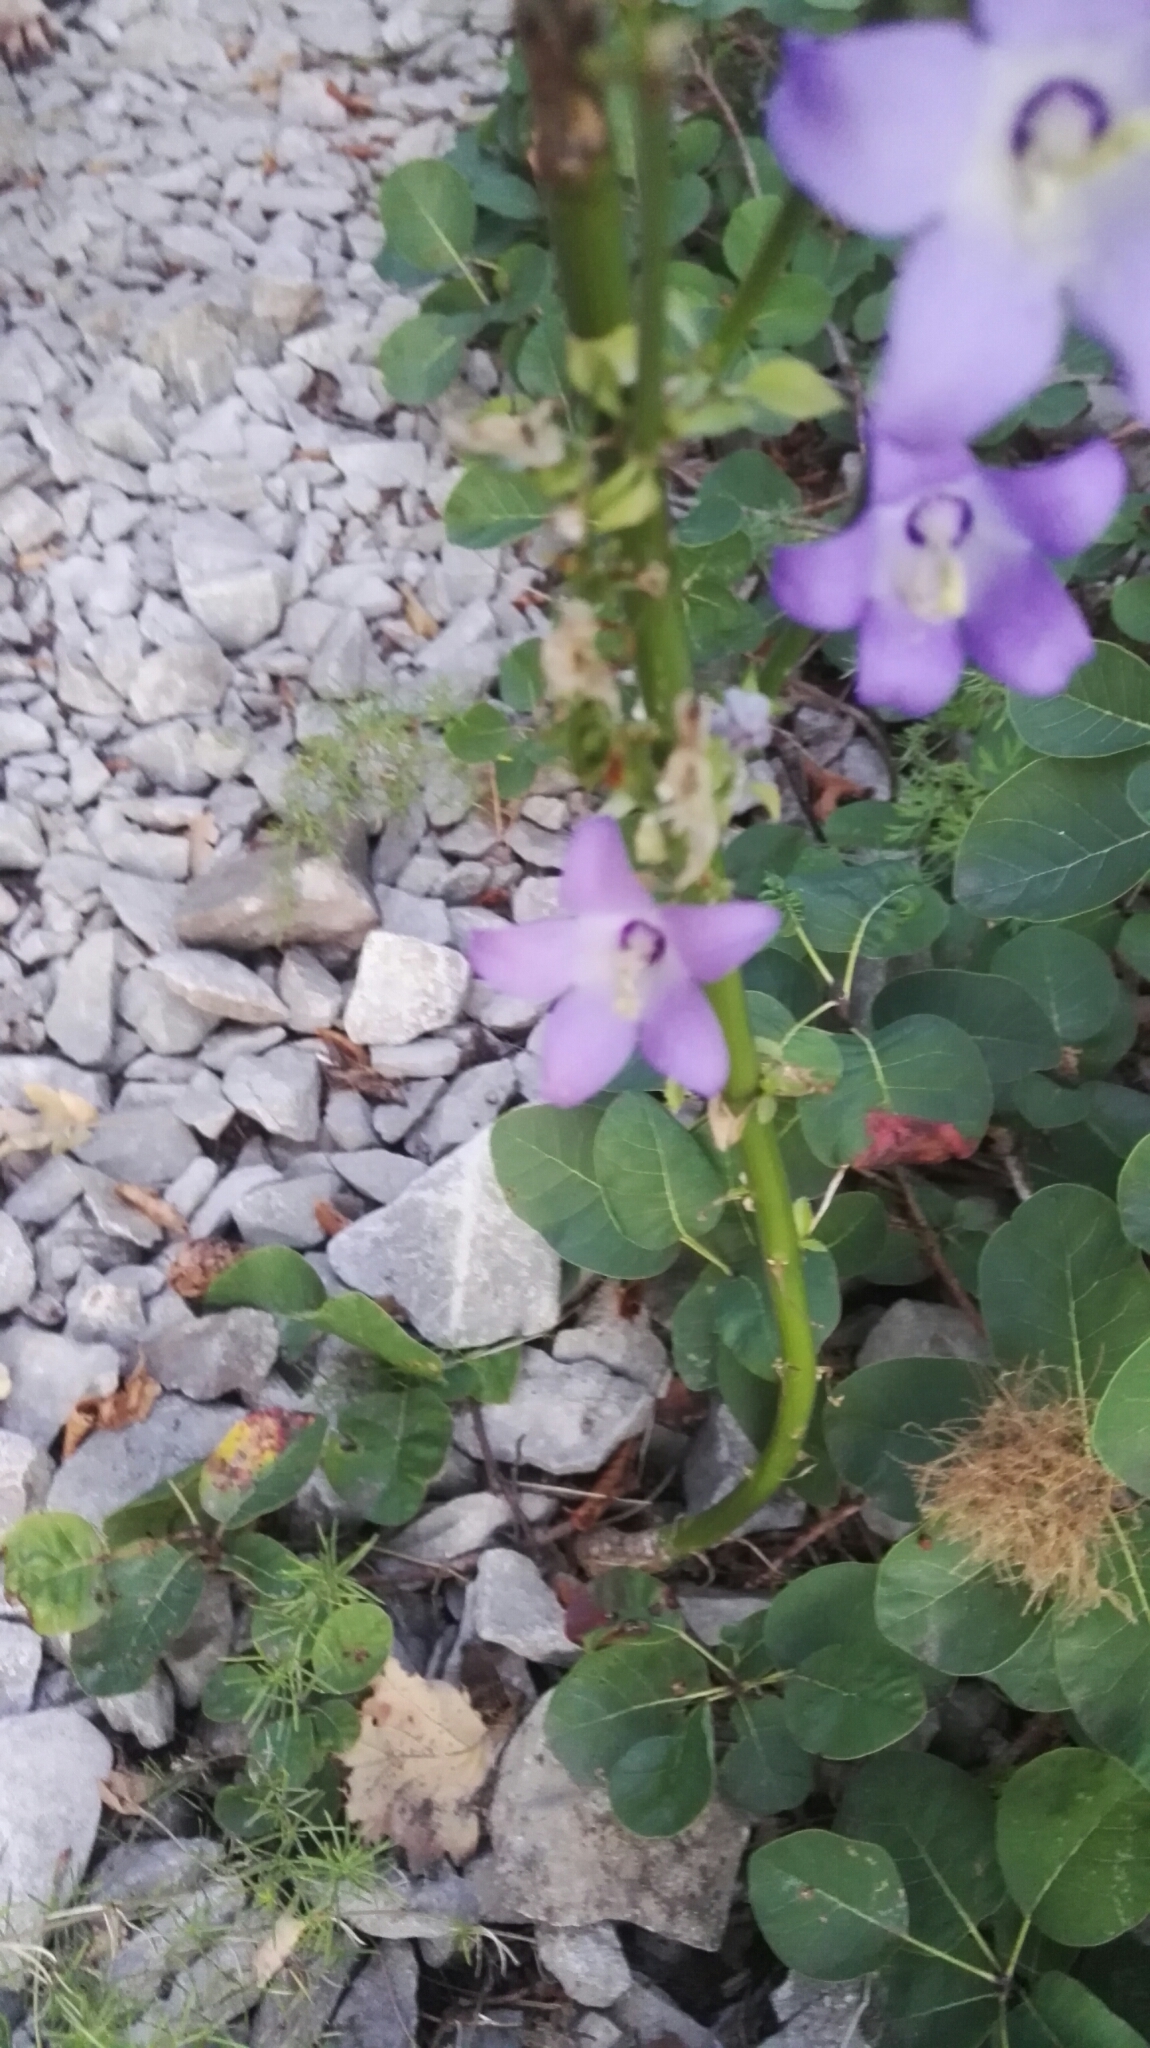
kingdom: Plantae
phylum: Tracheophyta
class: Magnoliopsida
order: Asterales
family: Campanulaceae
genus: Campanula
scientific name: Campanula pyramidalis
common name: Chimney bellflower
